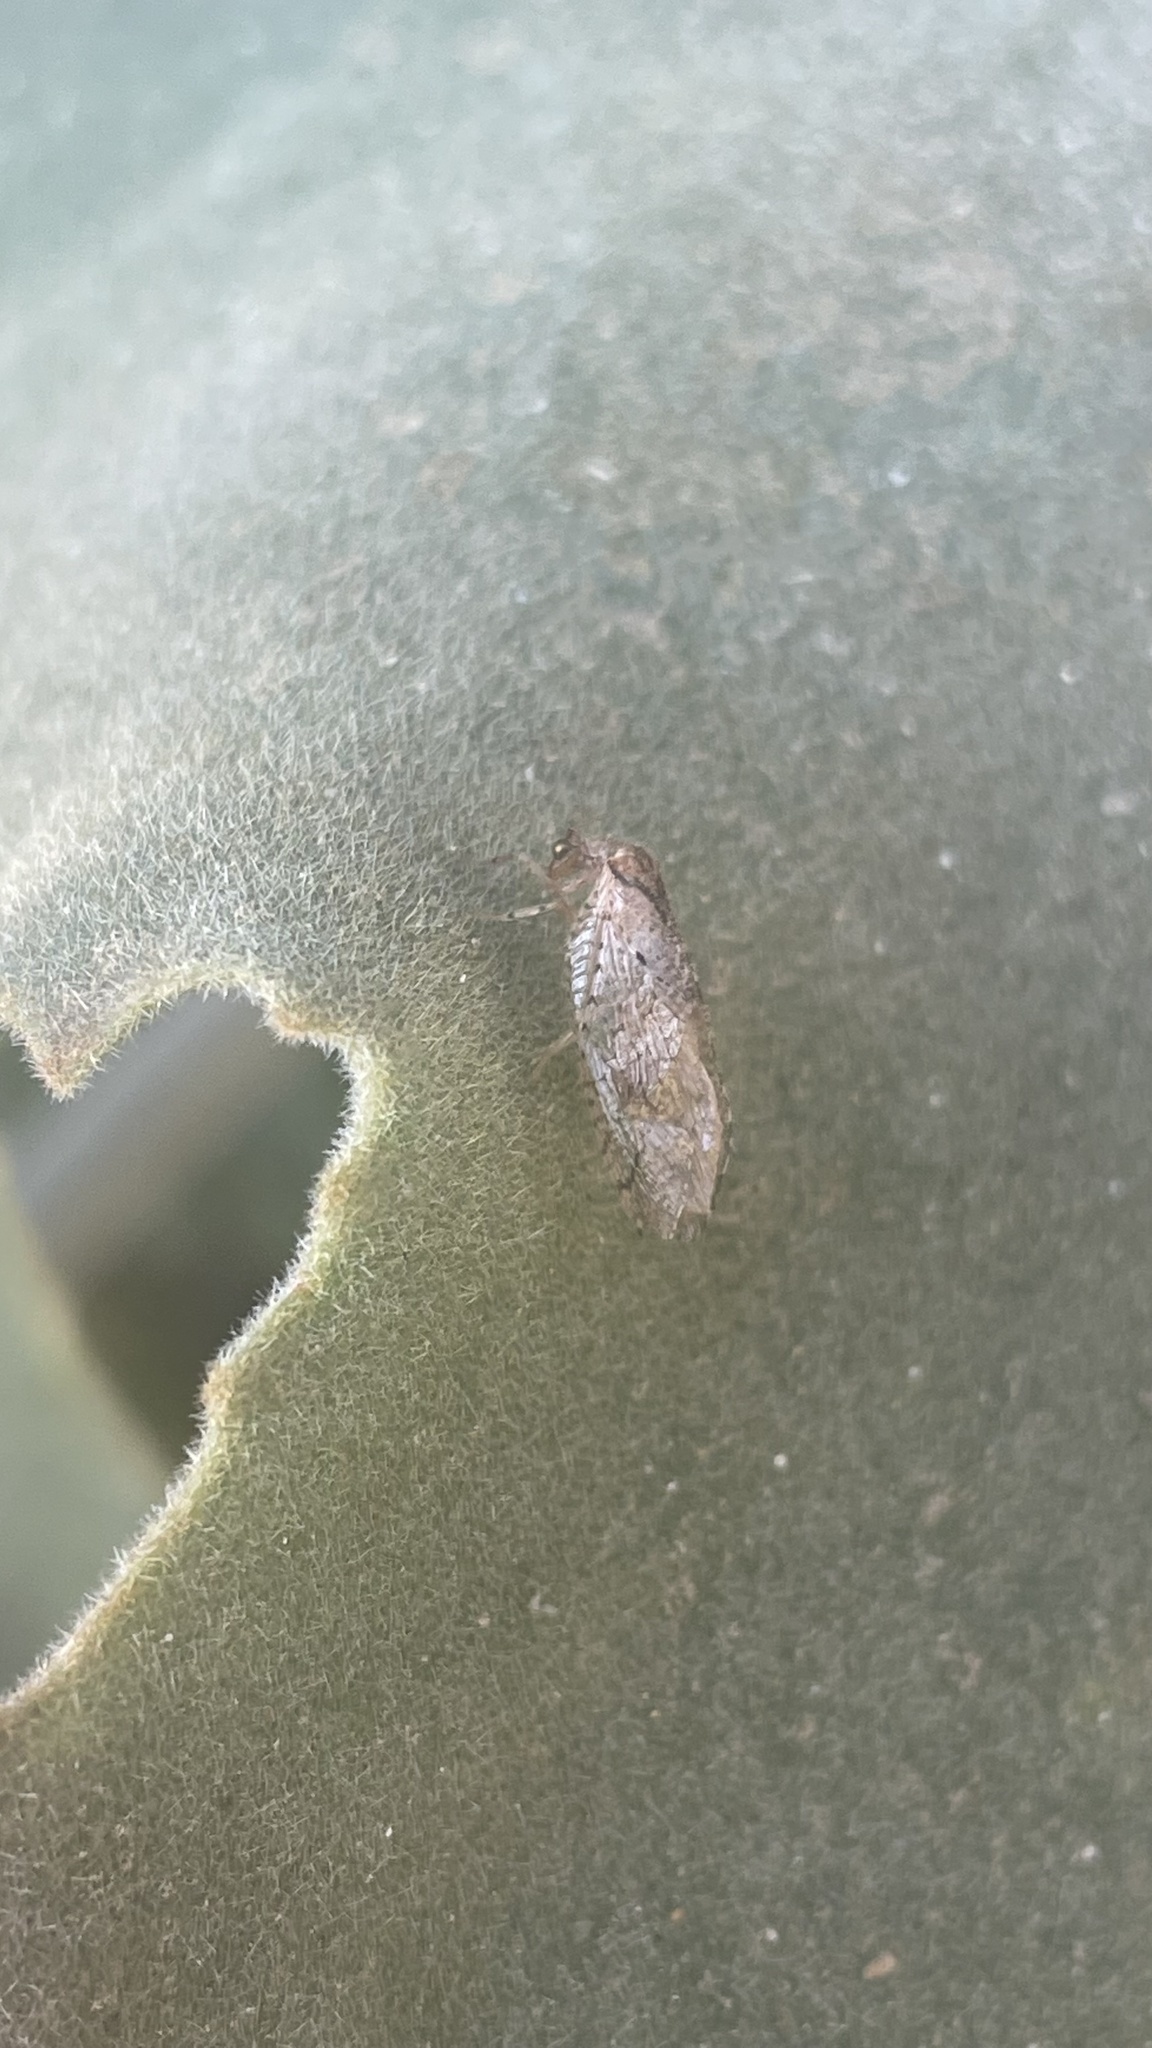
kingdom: Animalia
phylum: Arthropoda
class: Insecta
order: Neuroptera
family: Hemerobiidae
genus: Nusalala
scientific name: Nusalala tessellata
